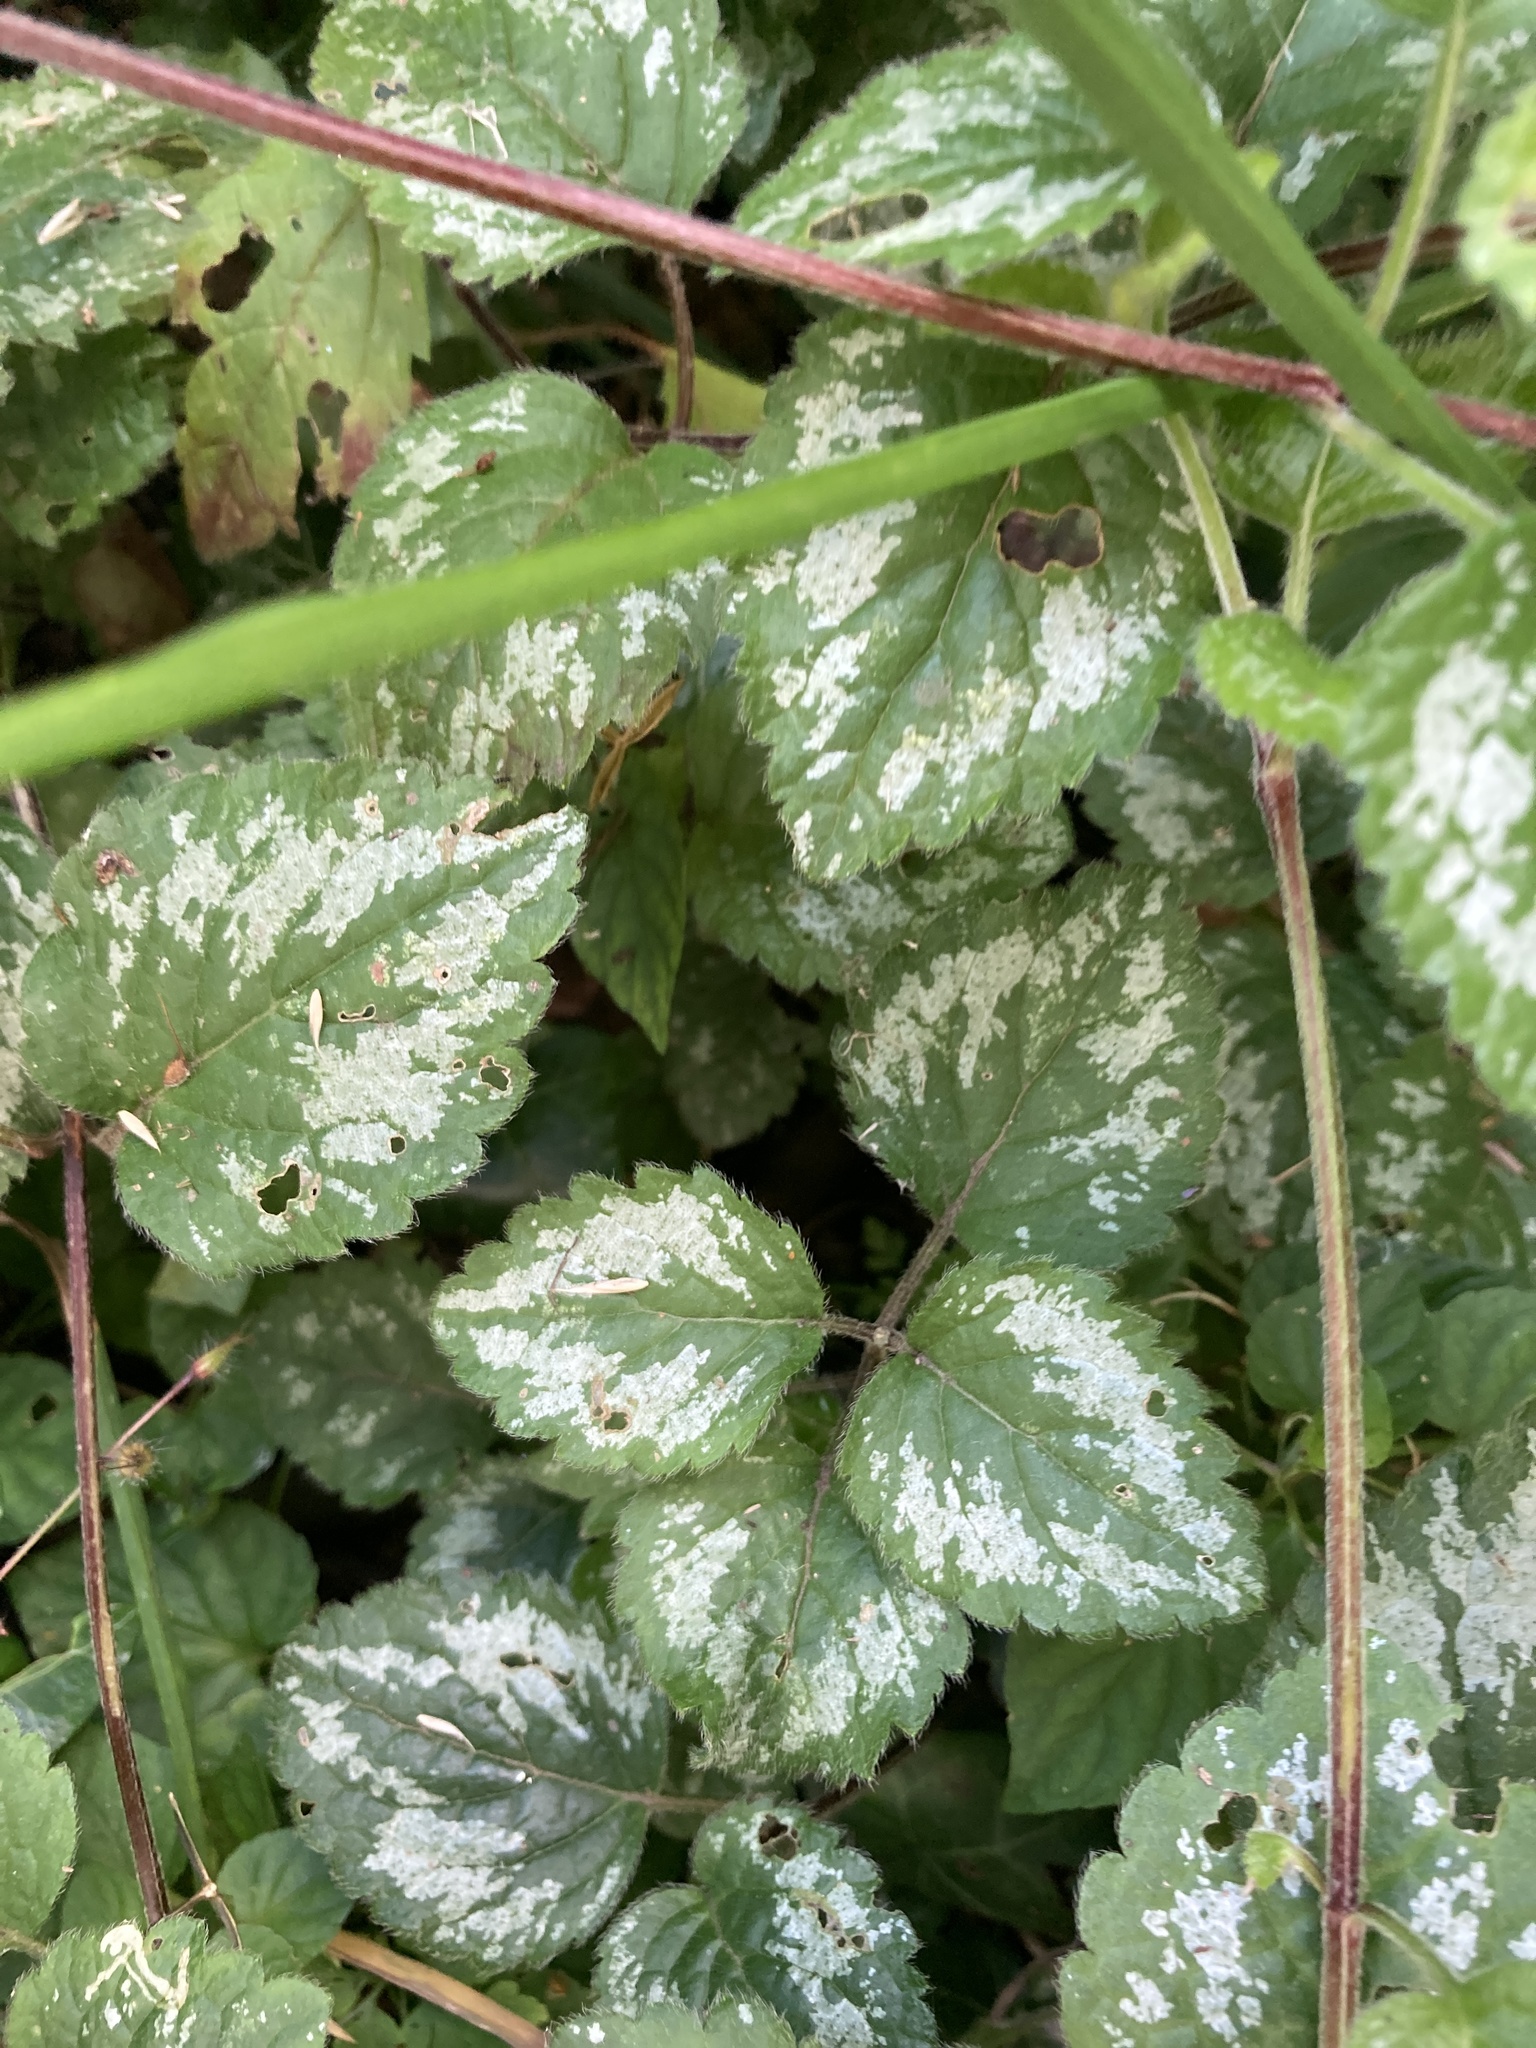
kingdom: Plantae
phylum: Tracheophyta
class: Magnoliopsida
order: Lamiales
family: Lamiaceae
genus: Lamium
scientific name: Lamium galeobdolon
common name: Yellow archangel
